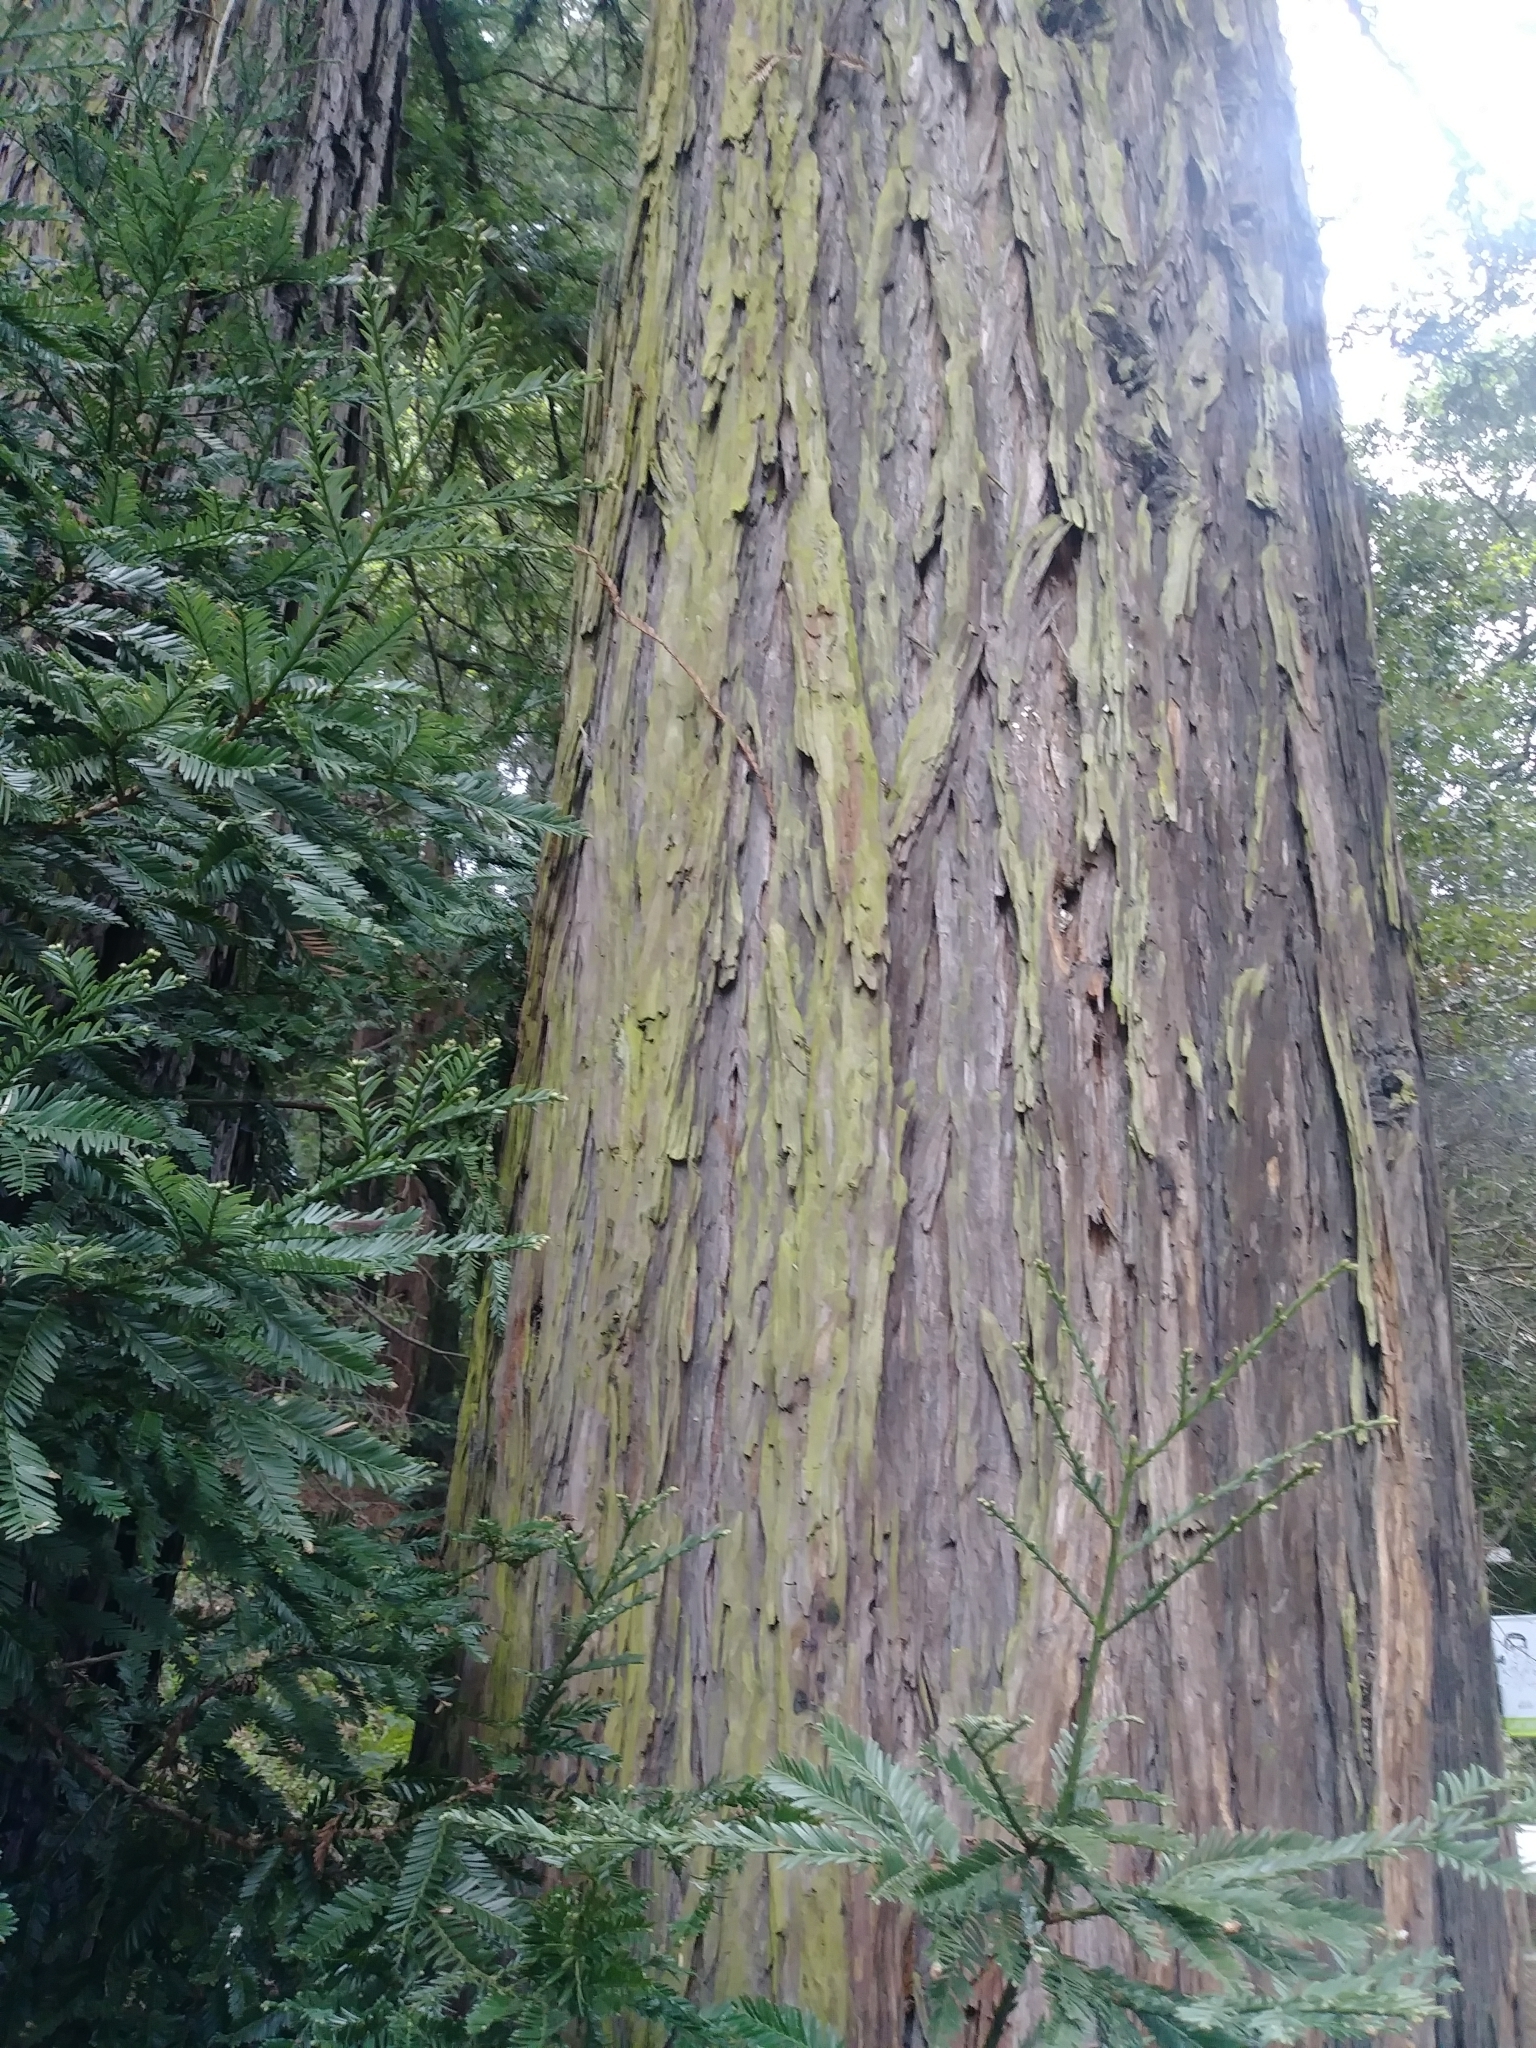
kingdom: Plantae
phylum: Tracheophyta
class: Pinopsida
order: Pinales
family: Cupressaceae
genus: Sequoia
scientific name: Sequoia sempervirens
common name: Coast redwood
